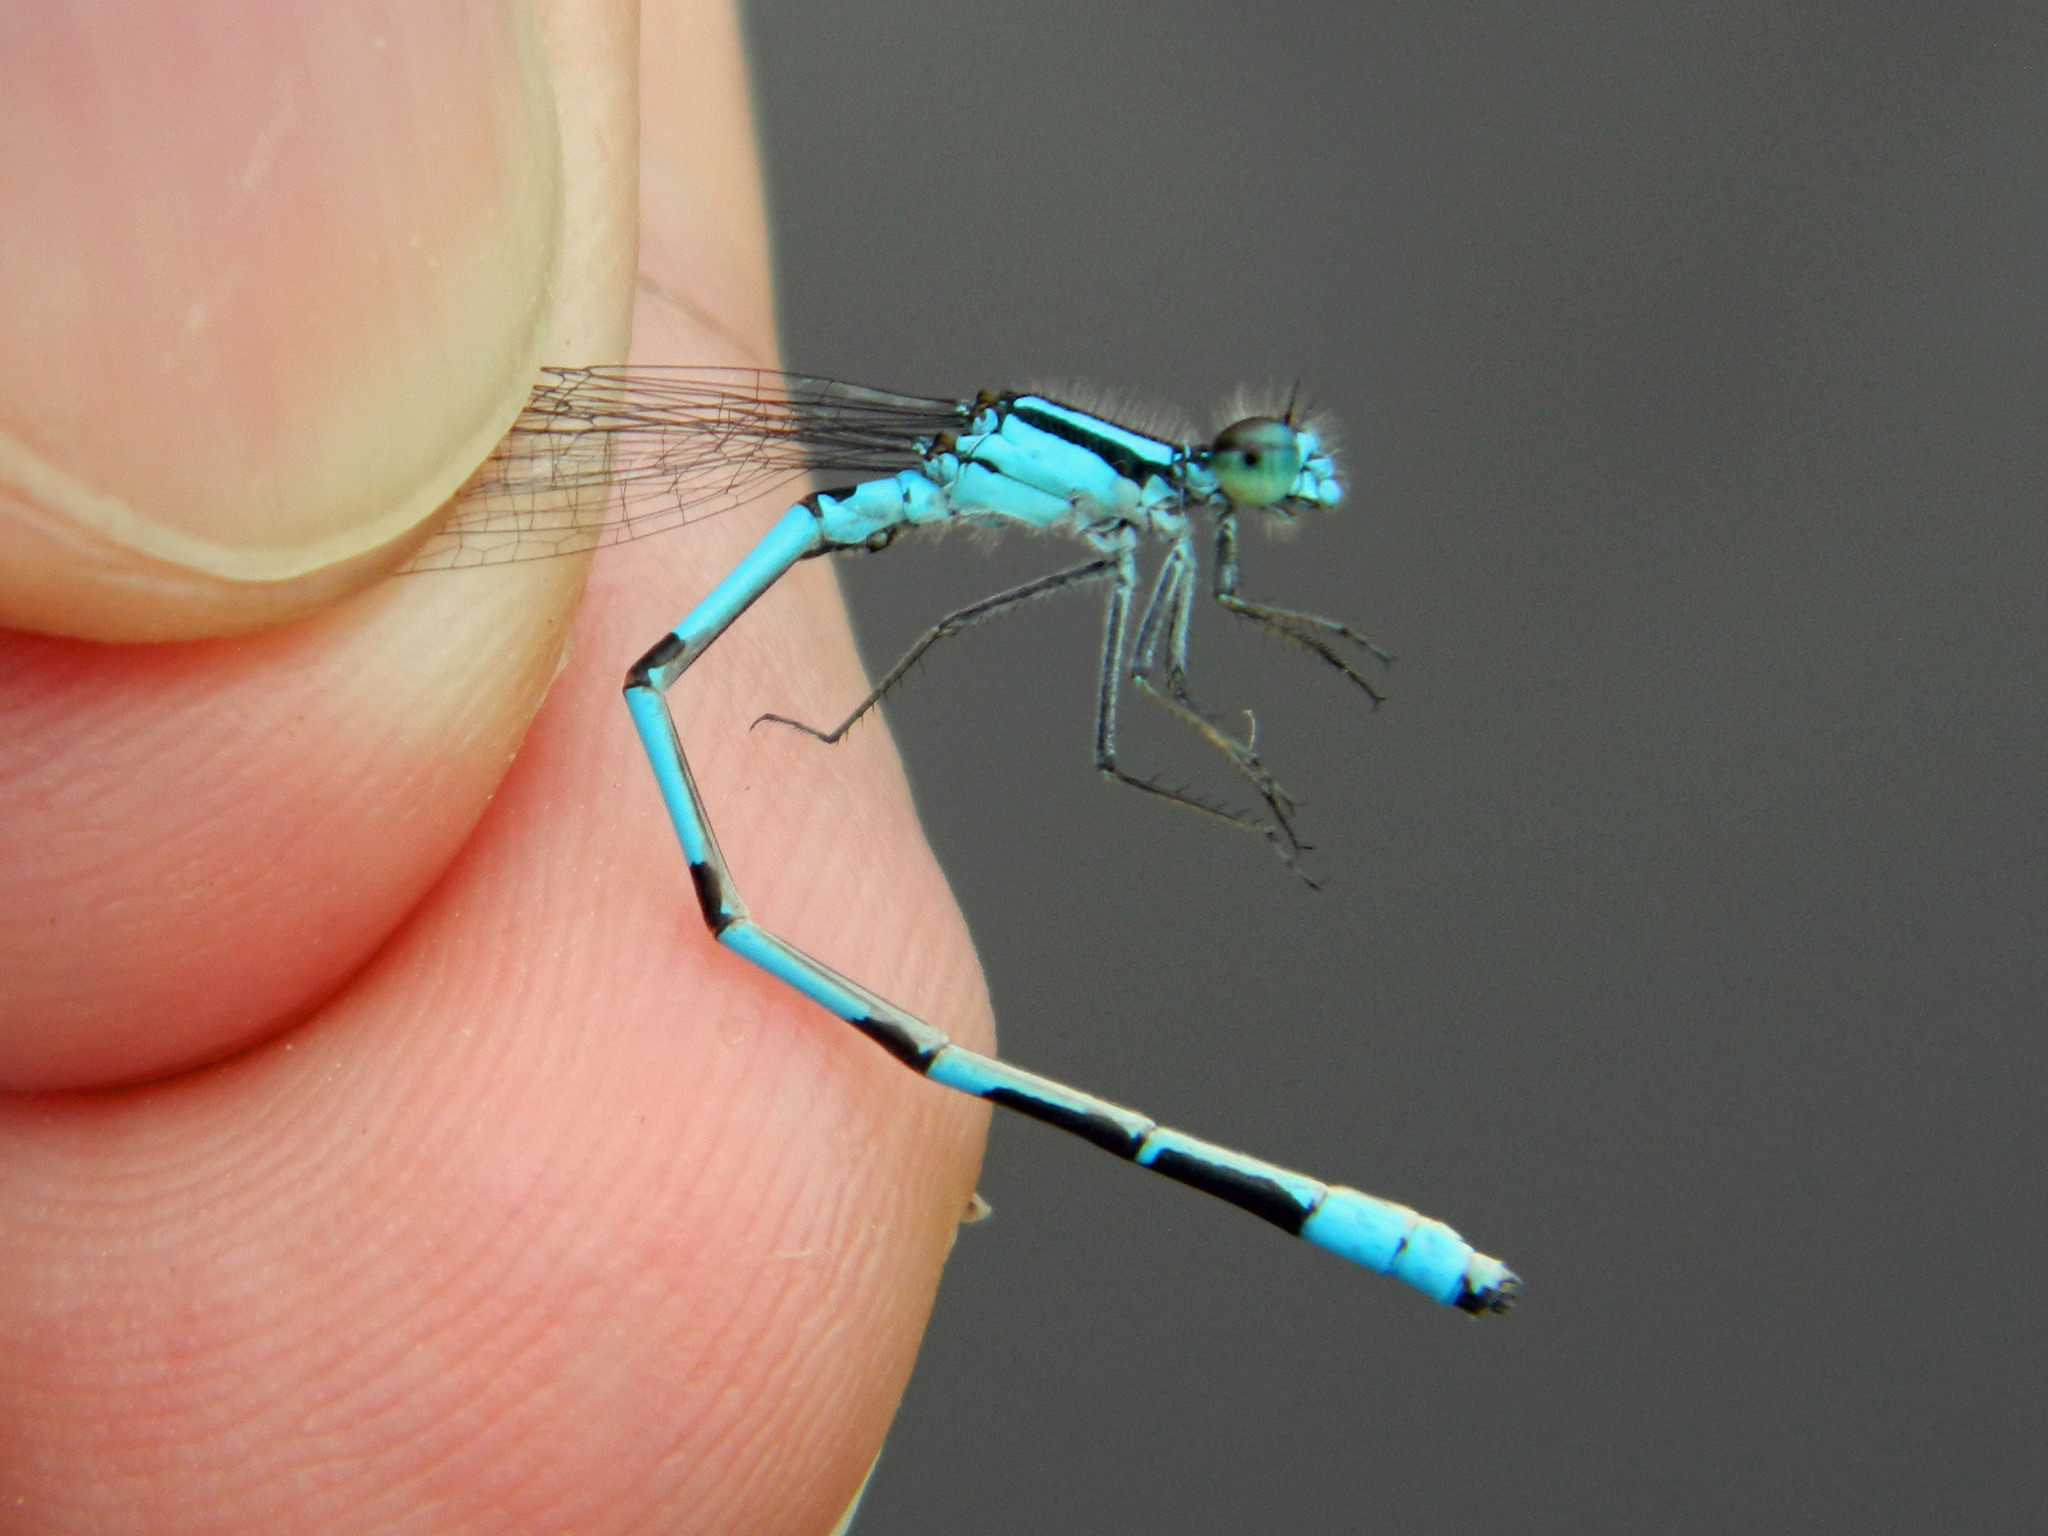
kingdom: Animalia
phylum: Arthropoda
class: Insecta
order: Odonata
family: Coenagrionidae
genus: Enallagma
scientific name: Enallagma ebrium
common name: Marsh bluet
